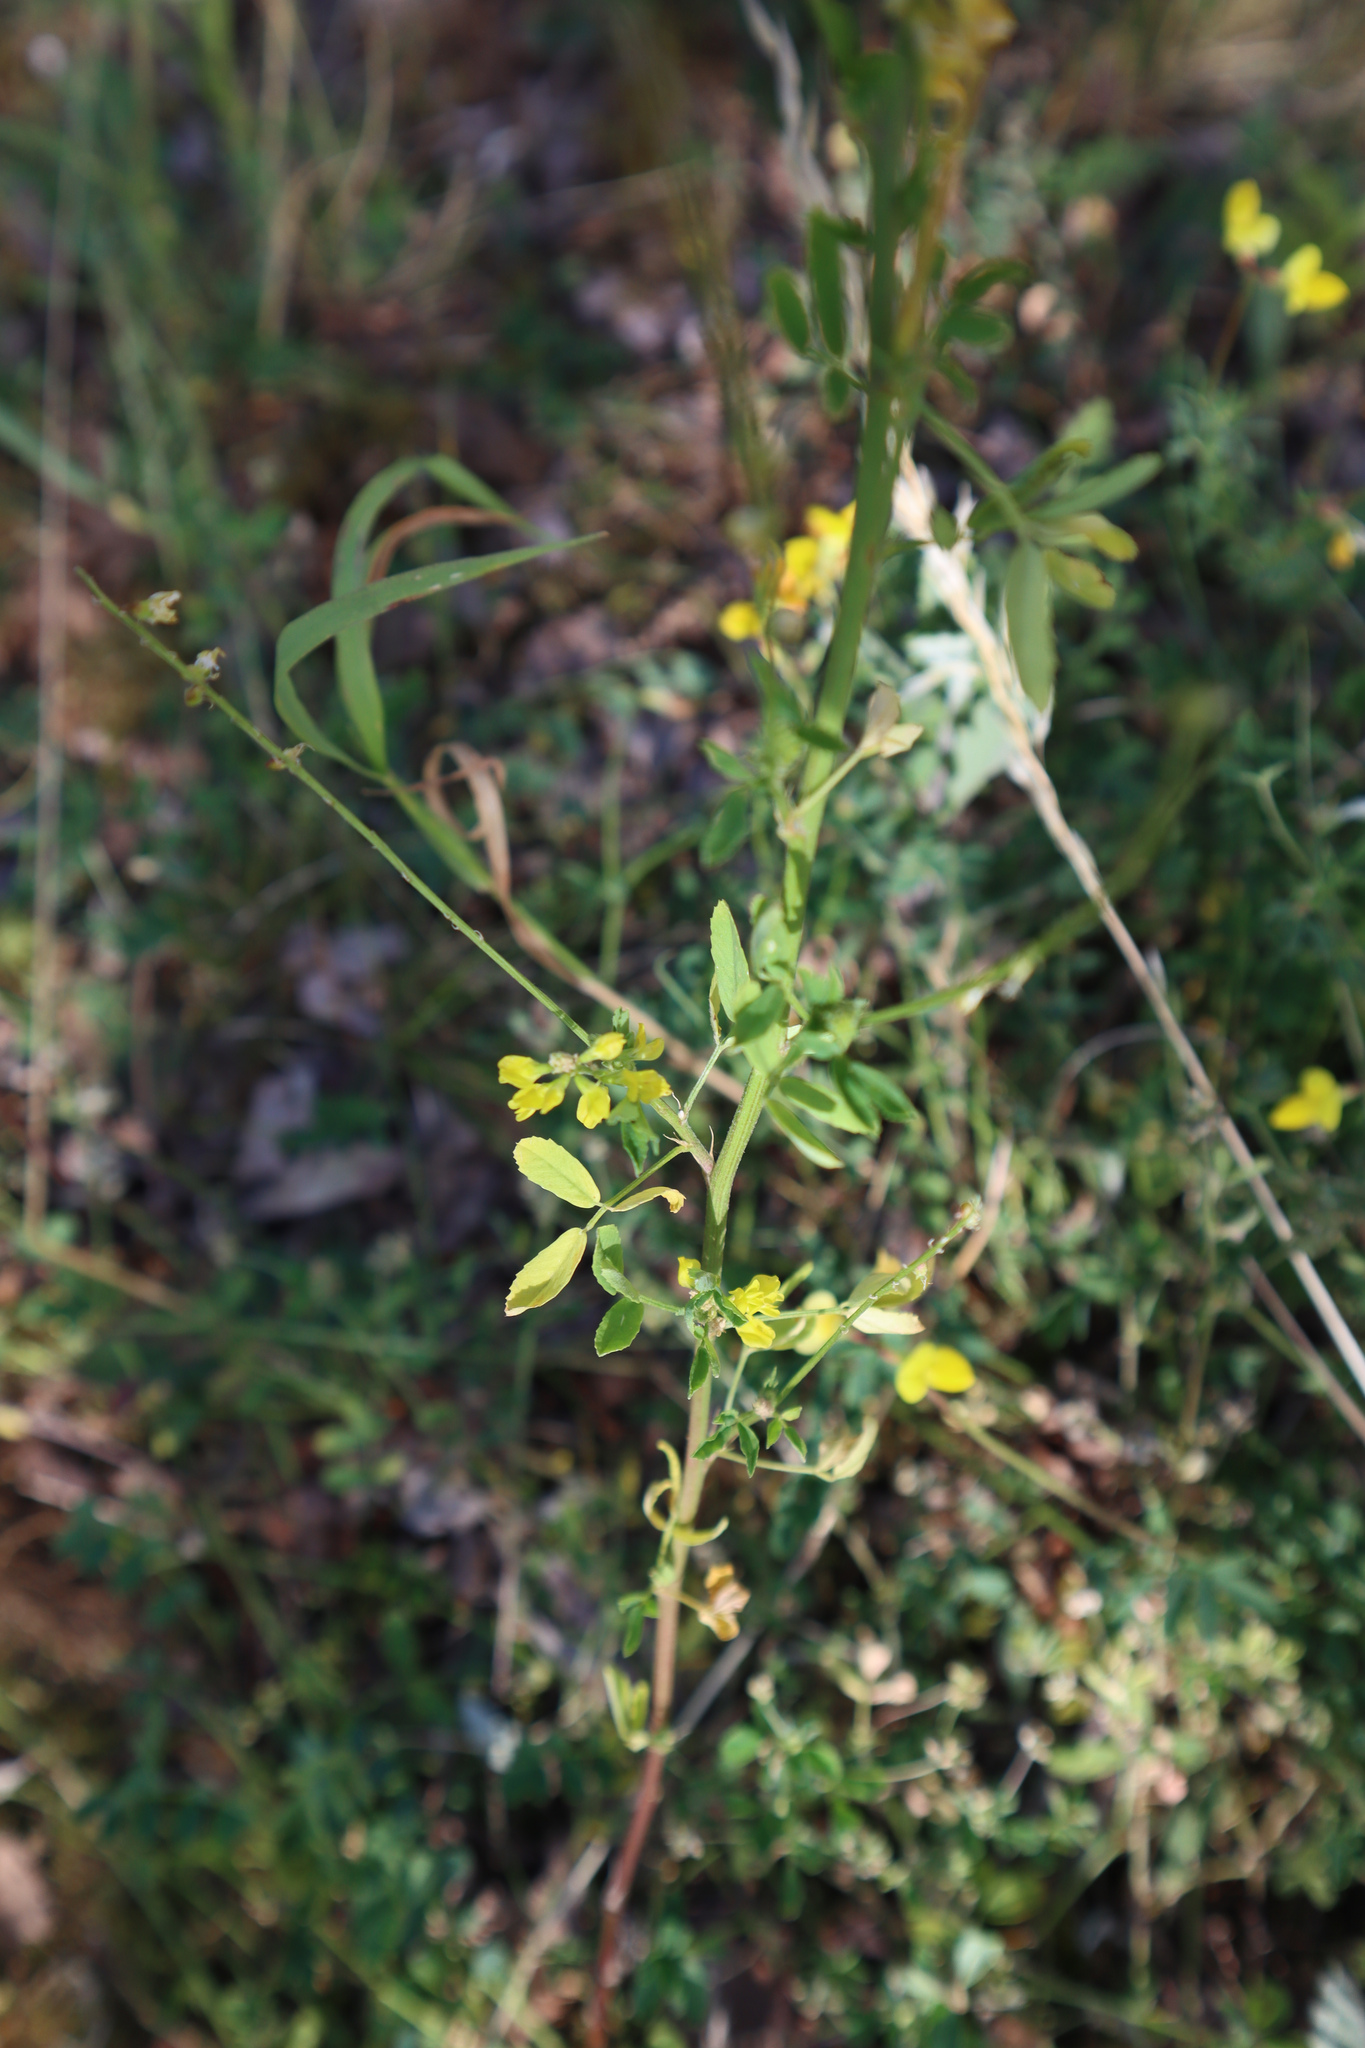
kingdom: Plantae
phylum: Tracheophyta
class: Magnoliopsida
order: Fabales
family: Fabaceae
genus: Melilotus
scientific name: Melilotus officinalis
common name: Sweetclover
